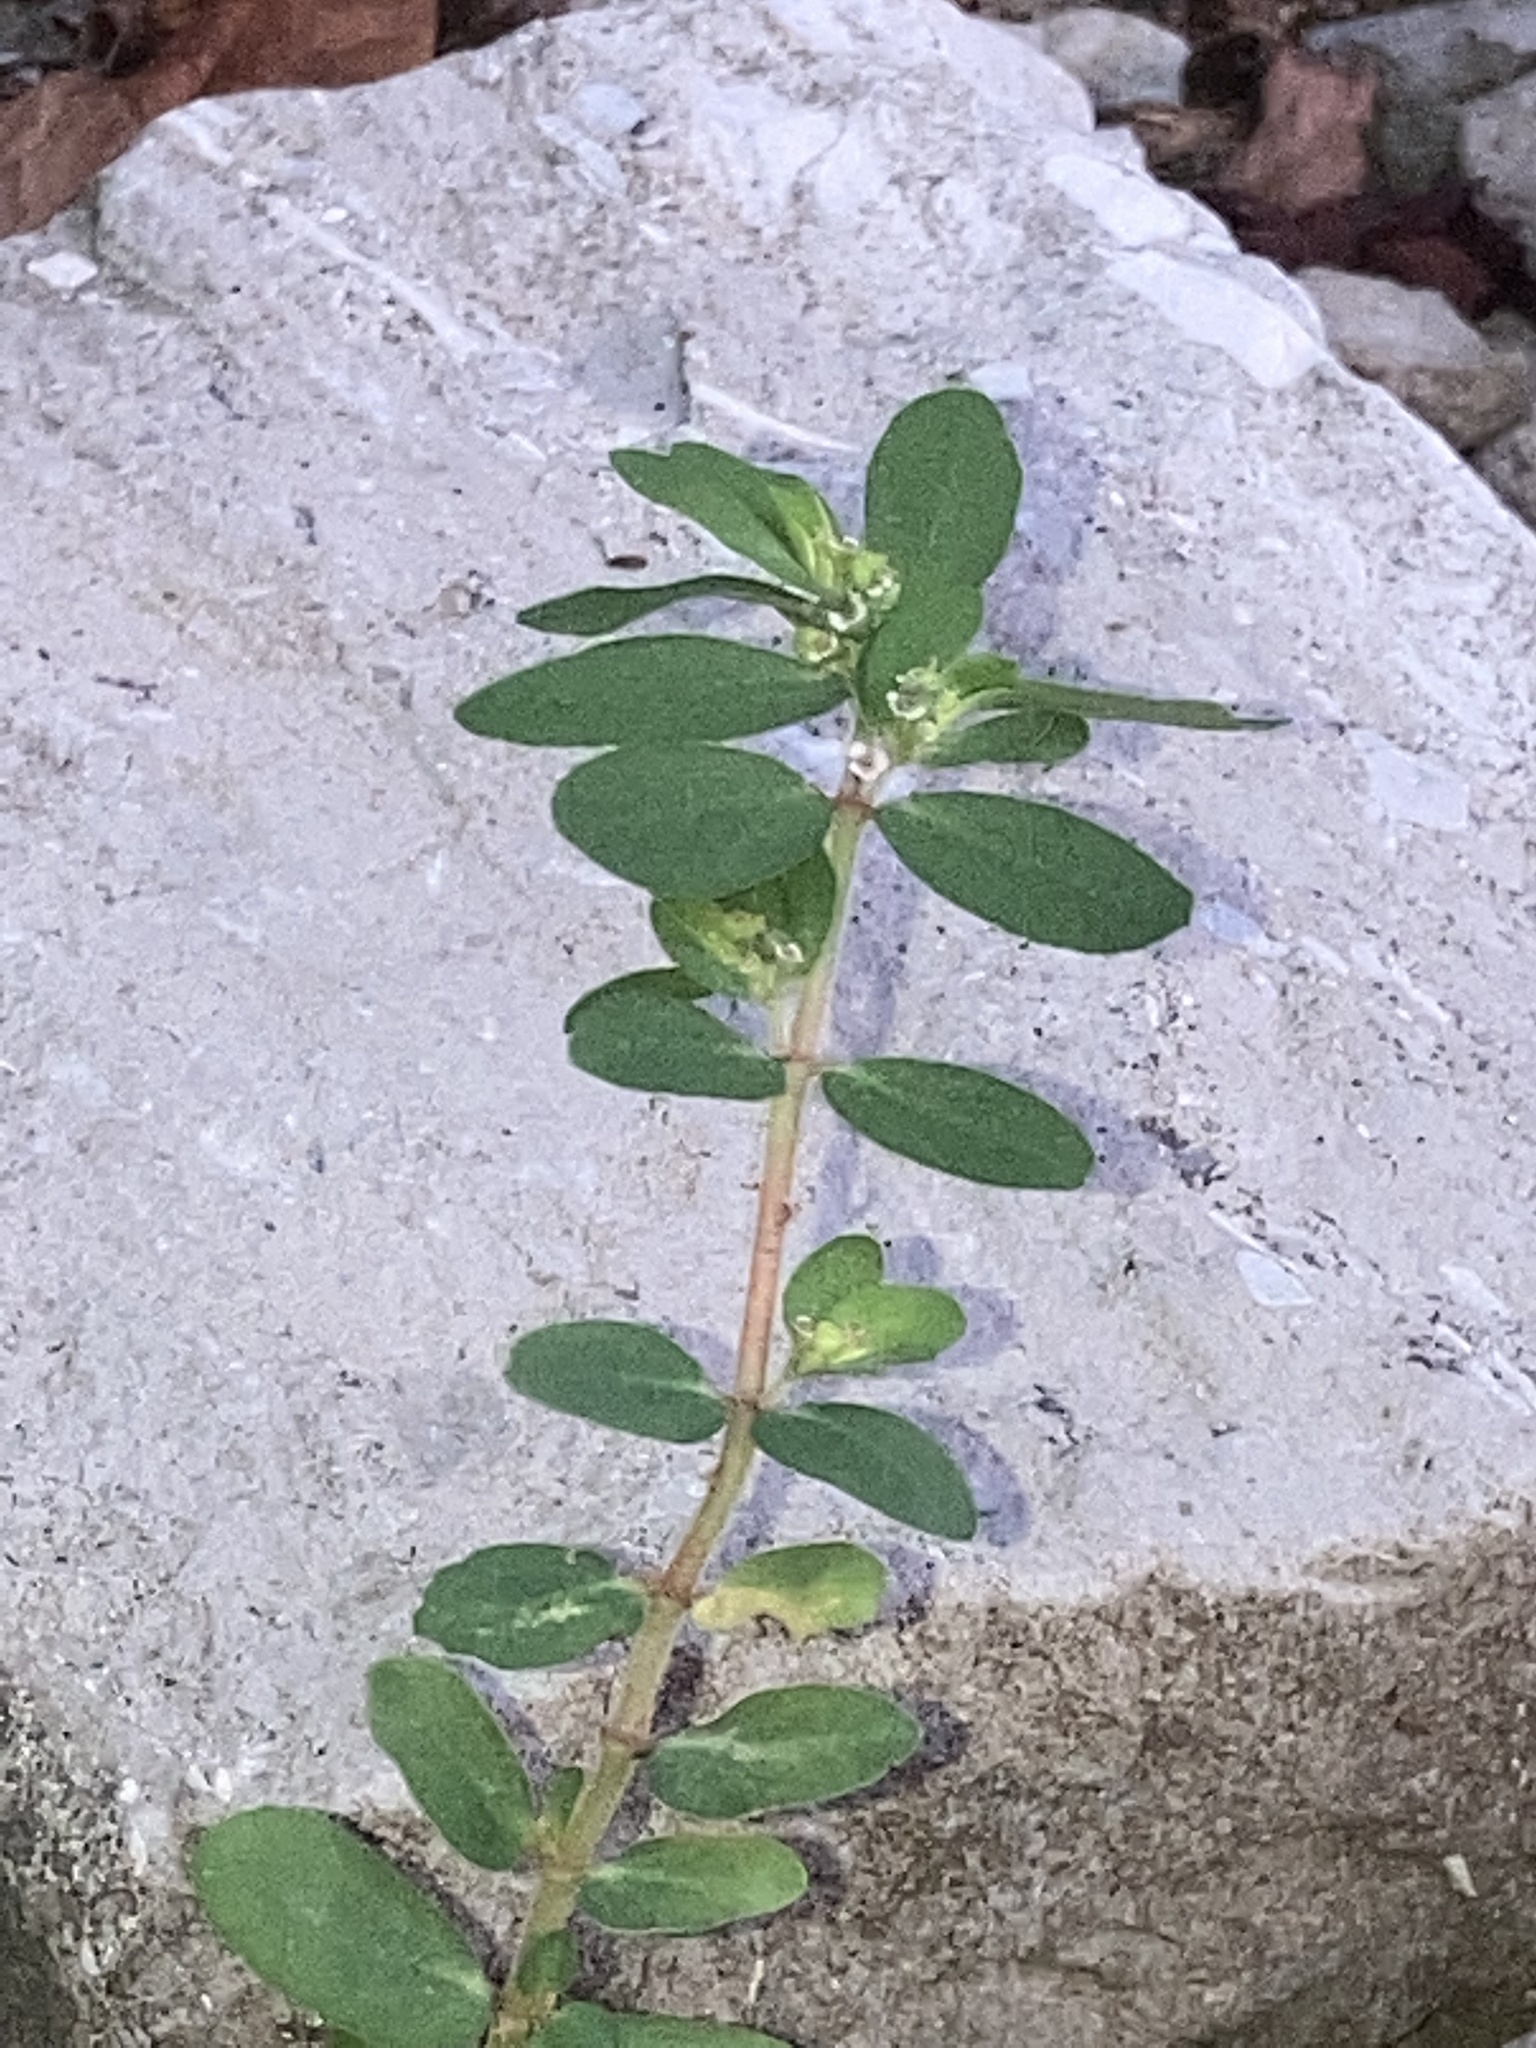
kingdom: Plantae
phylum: Tracheophyta
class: Magnoliopsida
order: Malpighiales
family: Euphorbiaceae
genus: Euphorbia
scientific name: Euphorbia maculata
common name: Spotted spurge
